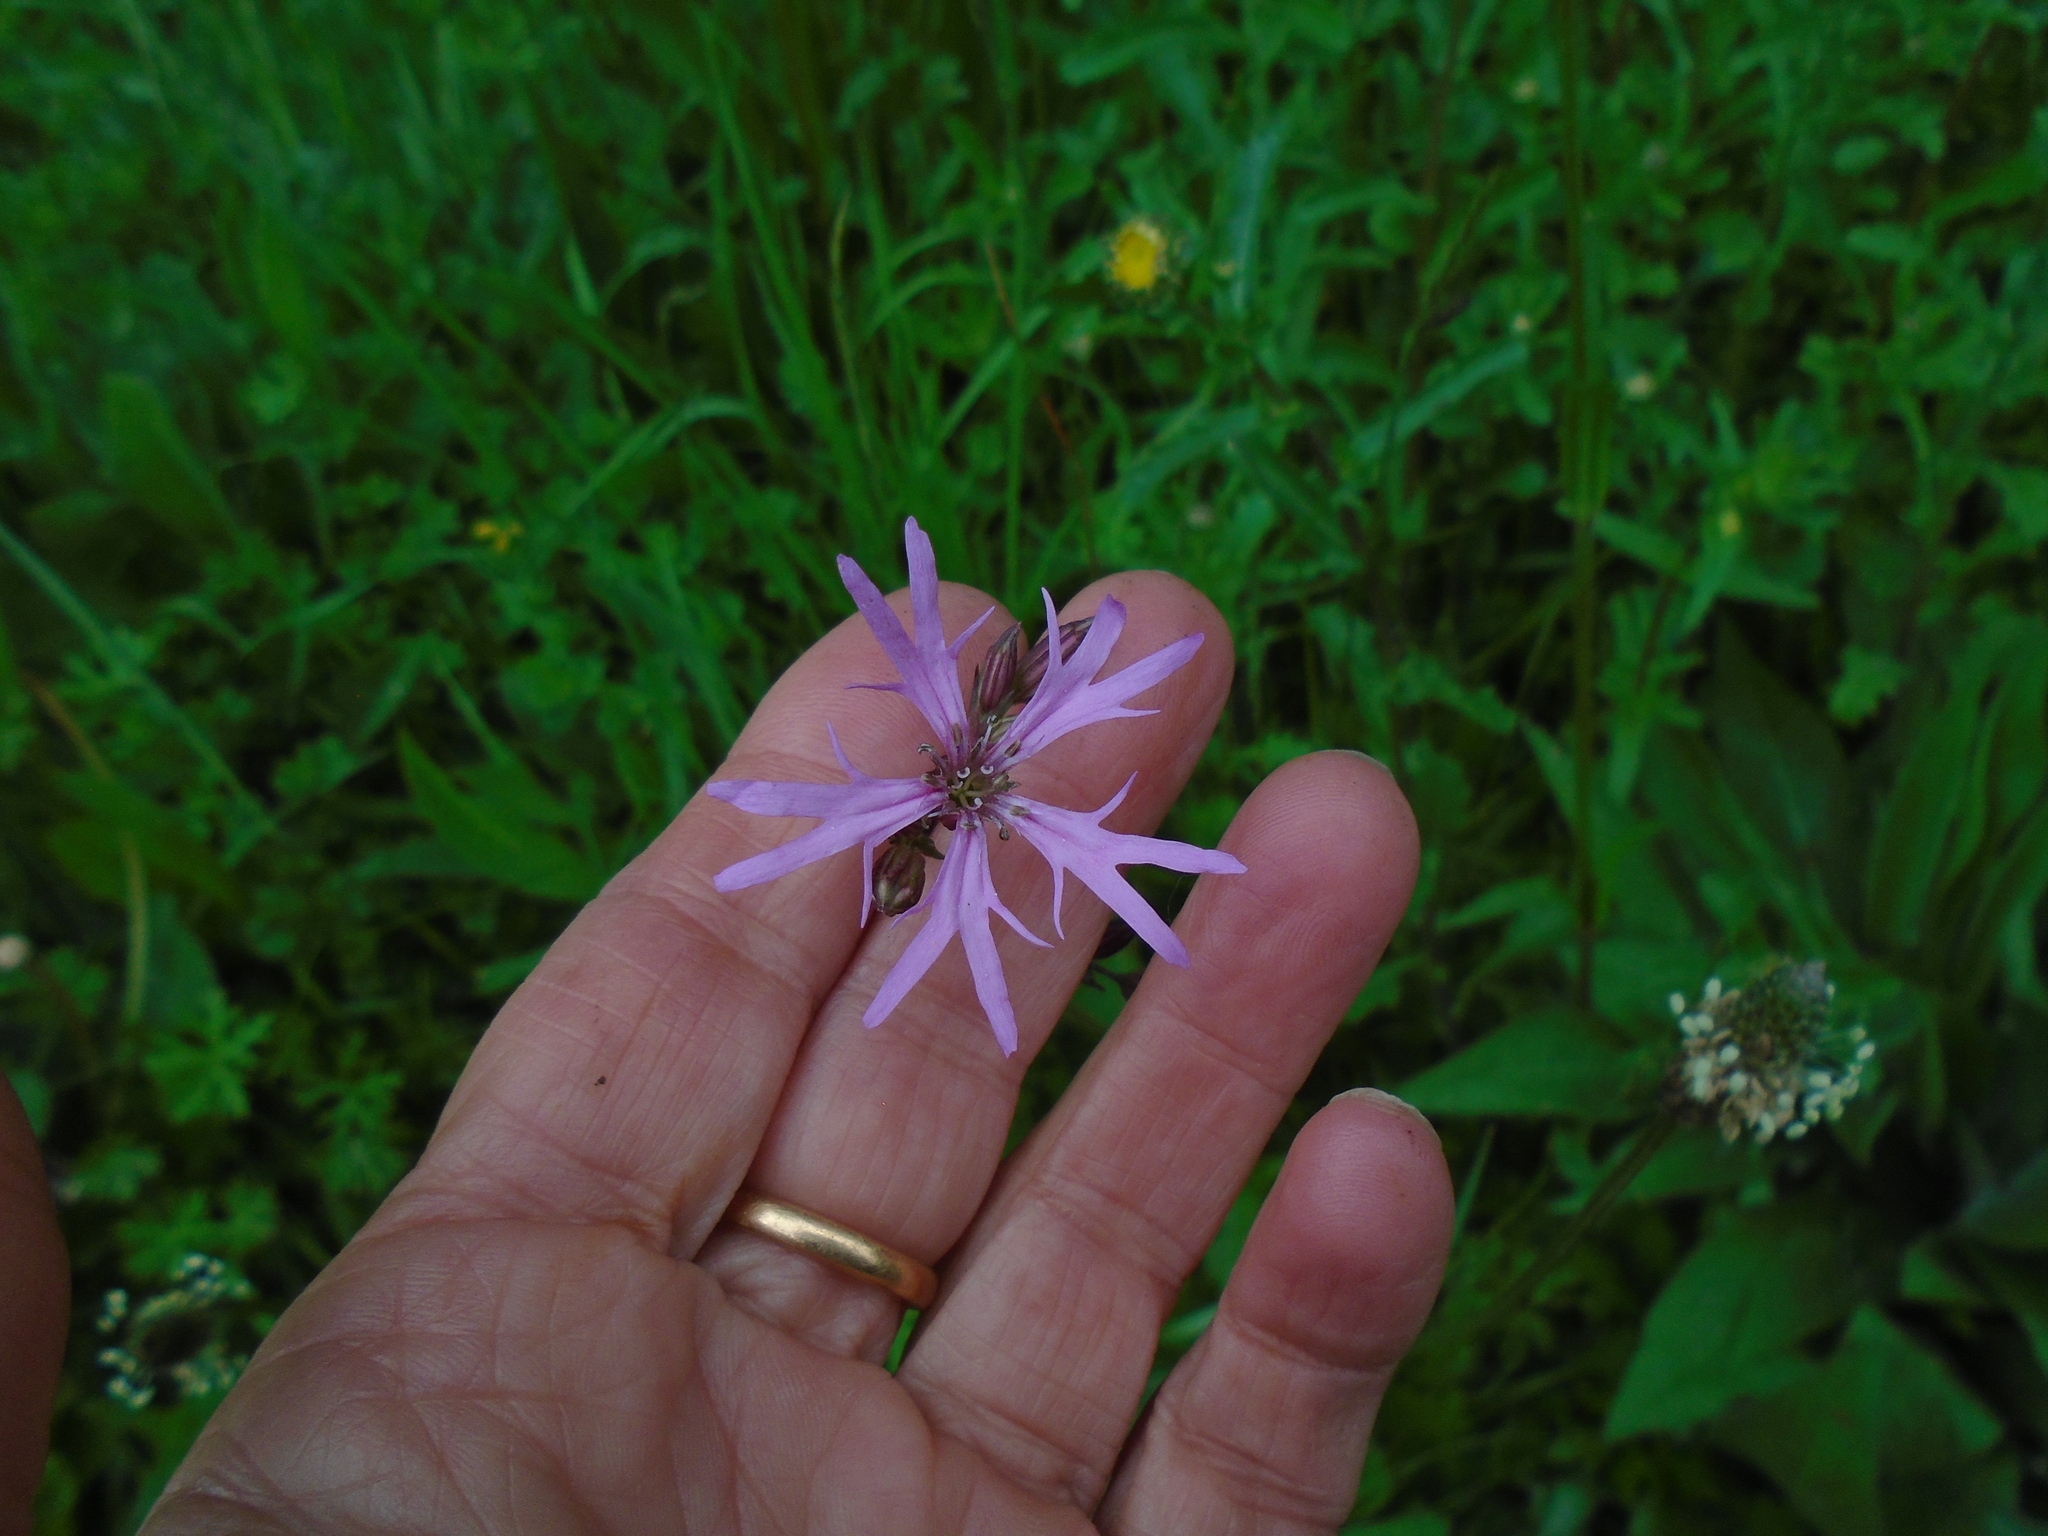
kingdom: Plantae
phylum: Tracheophyta
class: Magnoliopsida
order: Caryophyllales
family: Caryophyllaceae
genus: Silene
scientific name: Silene flos-cuculi
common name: Ragged-robin
